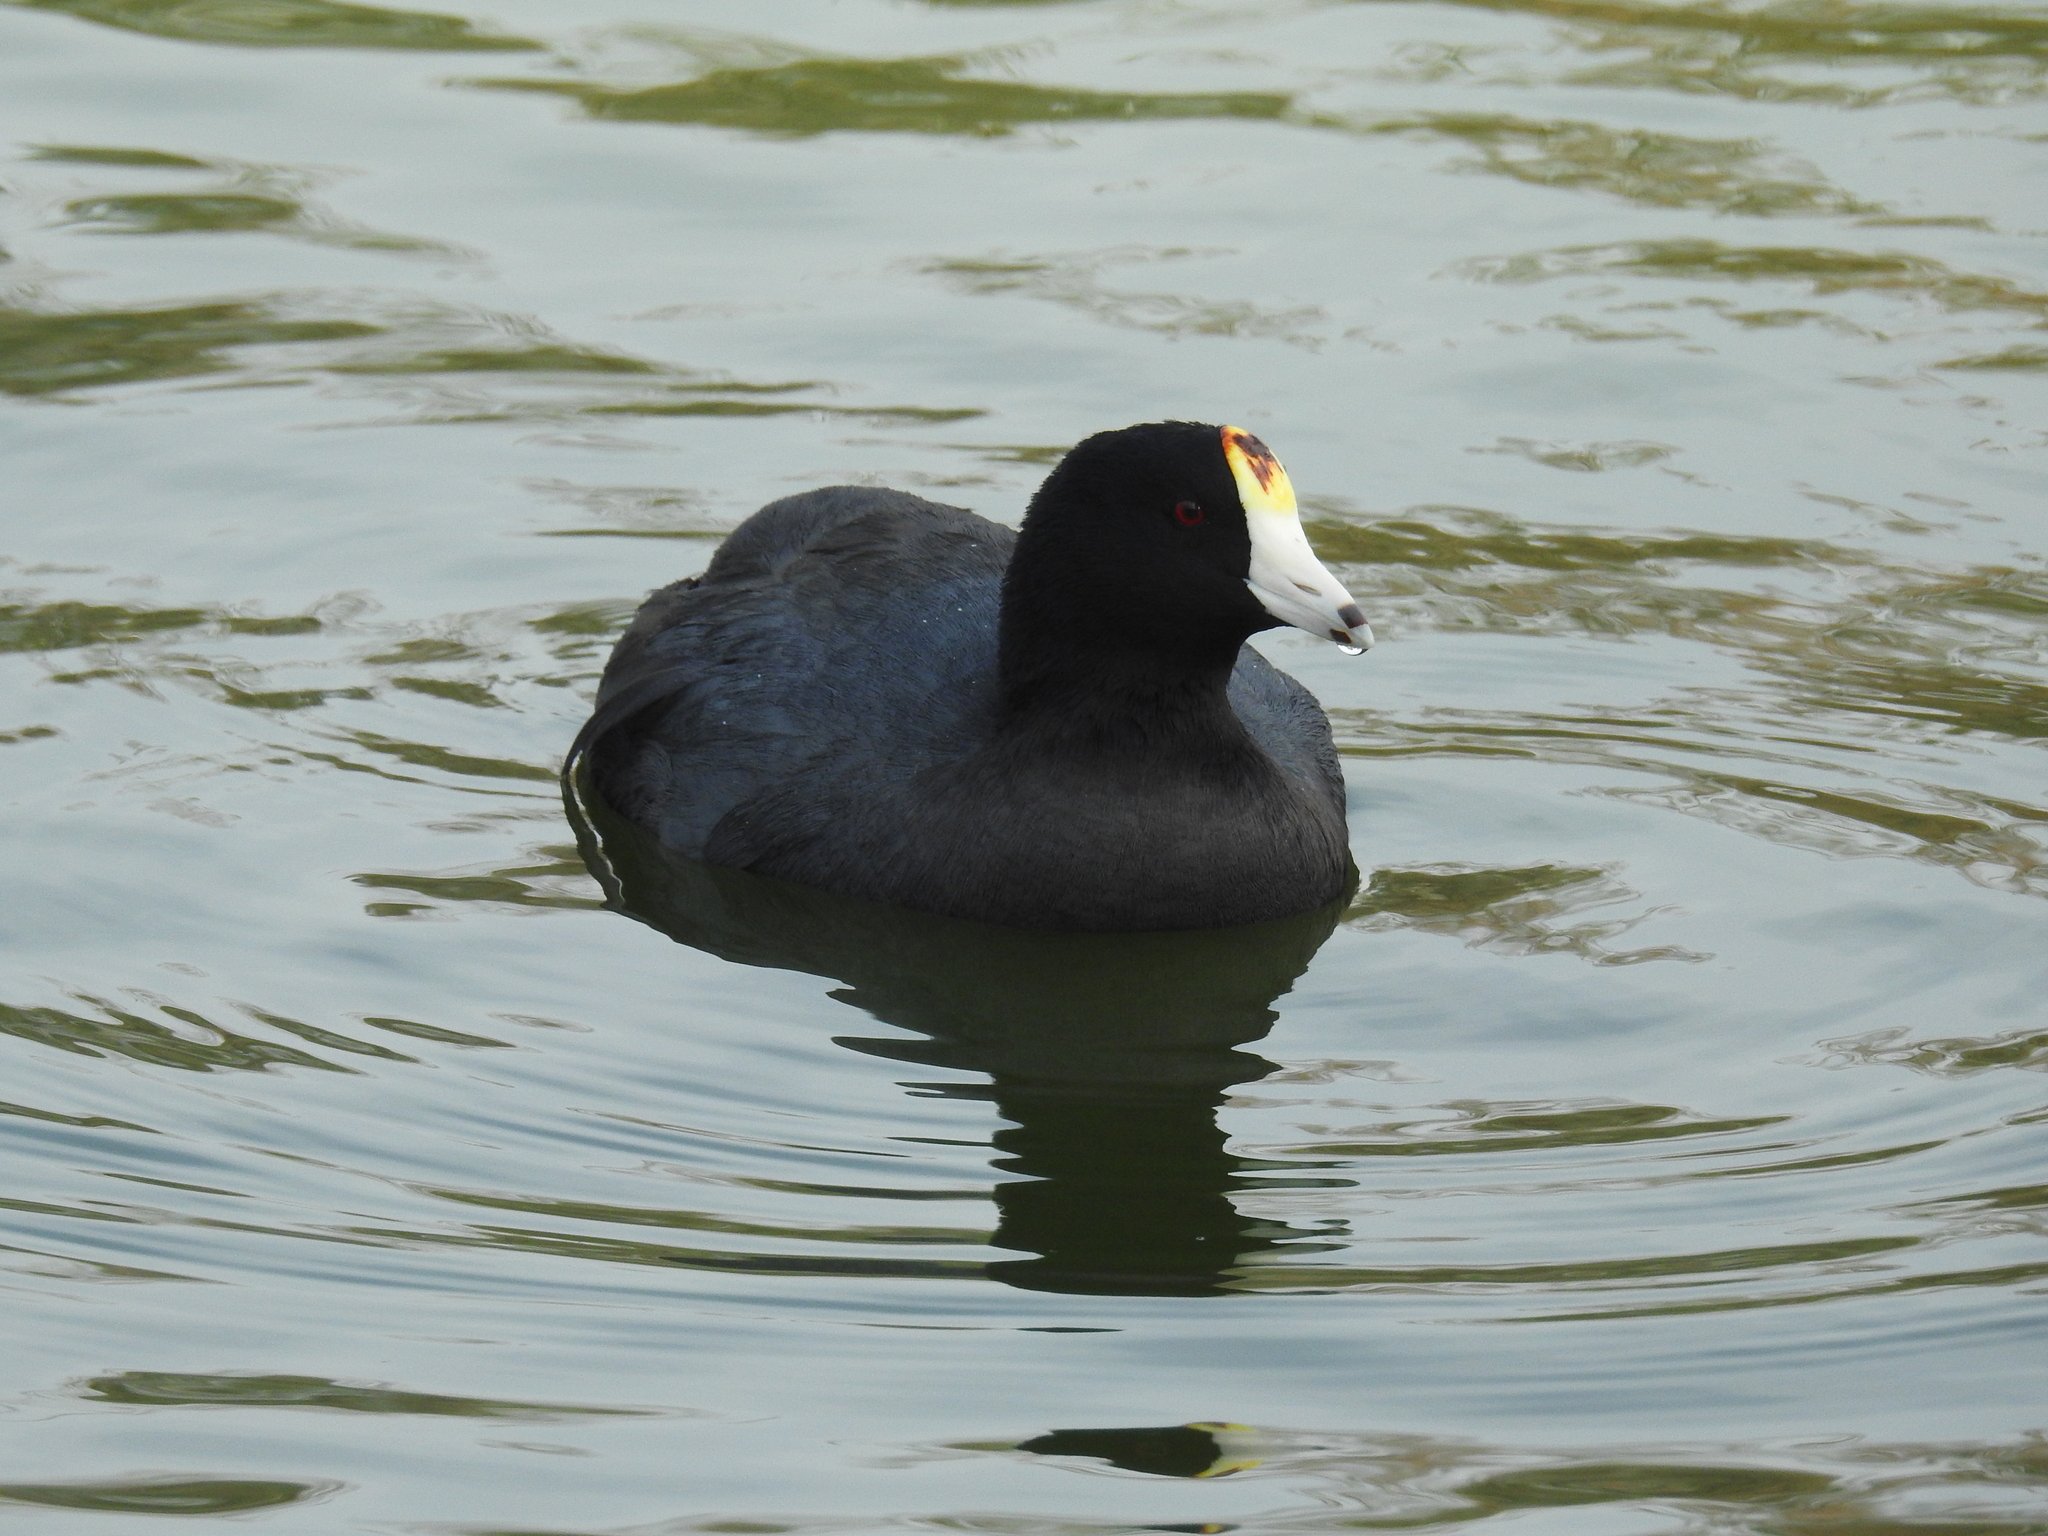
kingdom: Animalia
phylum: Chordata
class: Aves
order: Gruiformes
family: Rallidae
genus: Fulica
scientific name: Fulica americana
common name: American coot
